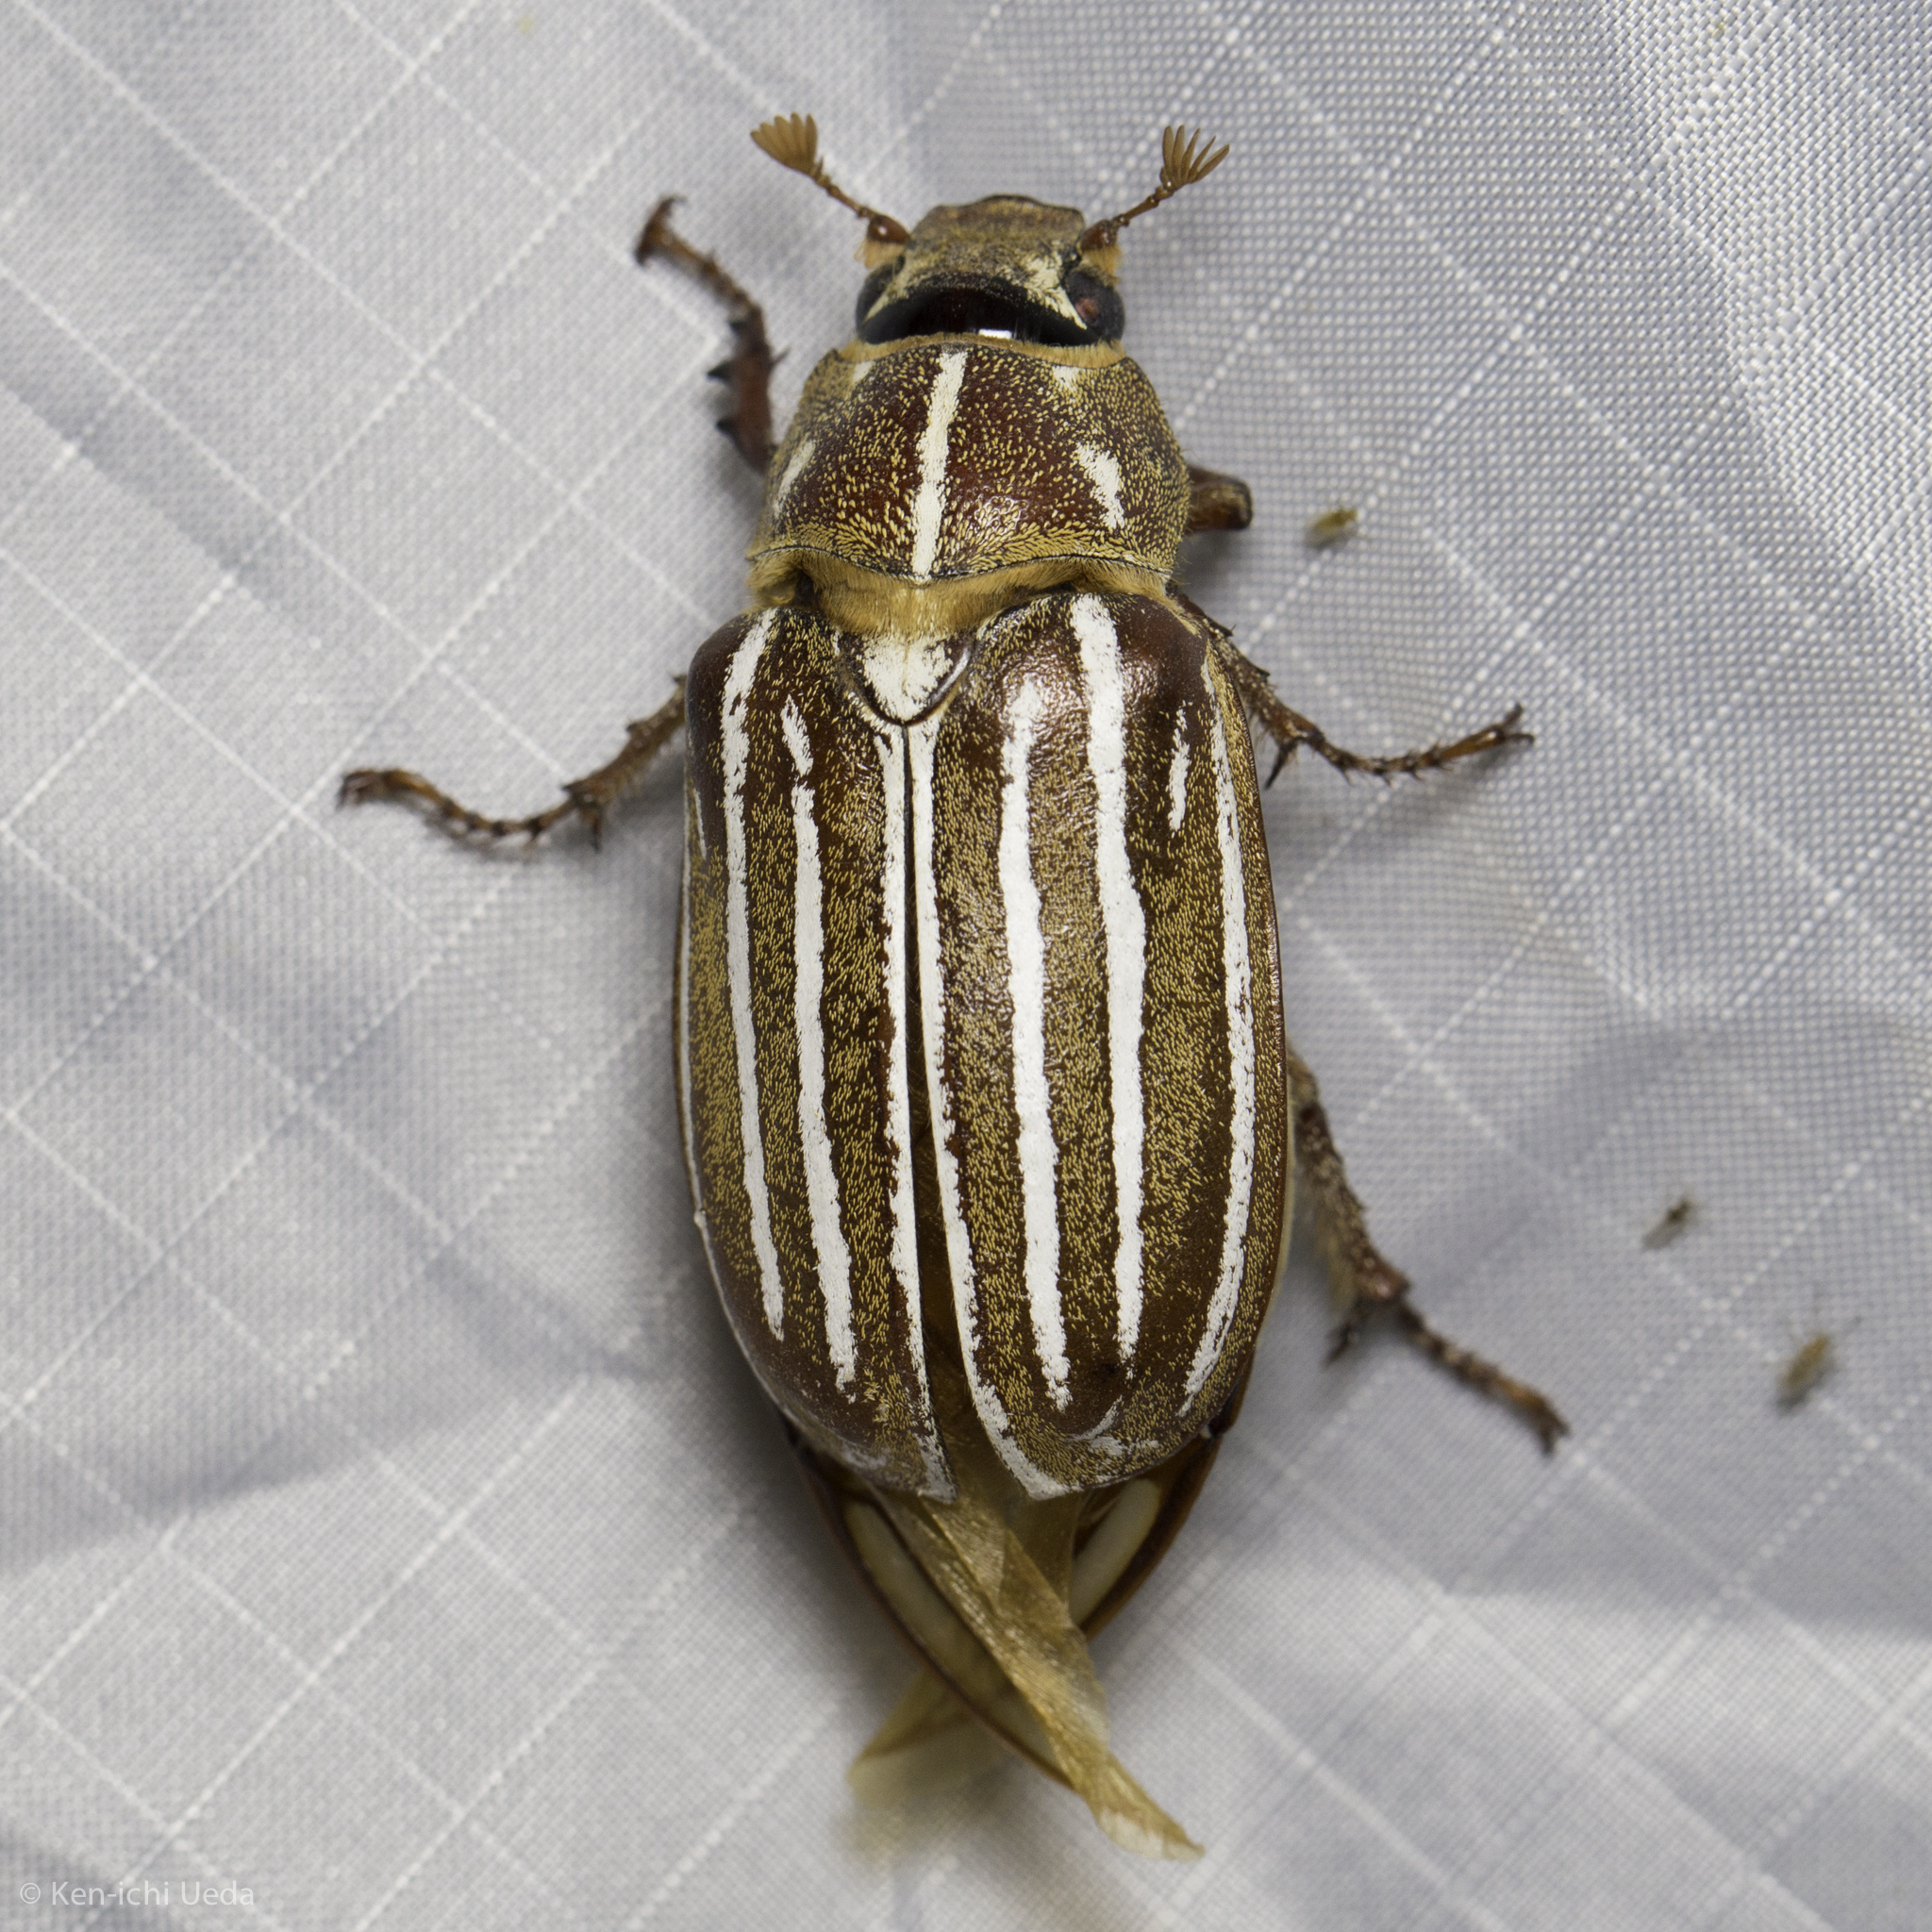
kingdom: Animalia
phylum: Arthropoda
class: Insecta
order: Coleoptera
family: Scarabaeidae
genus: Polyphylla
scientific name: Polyphylla decemlineata
